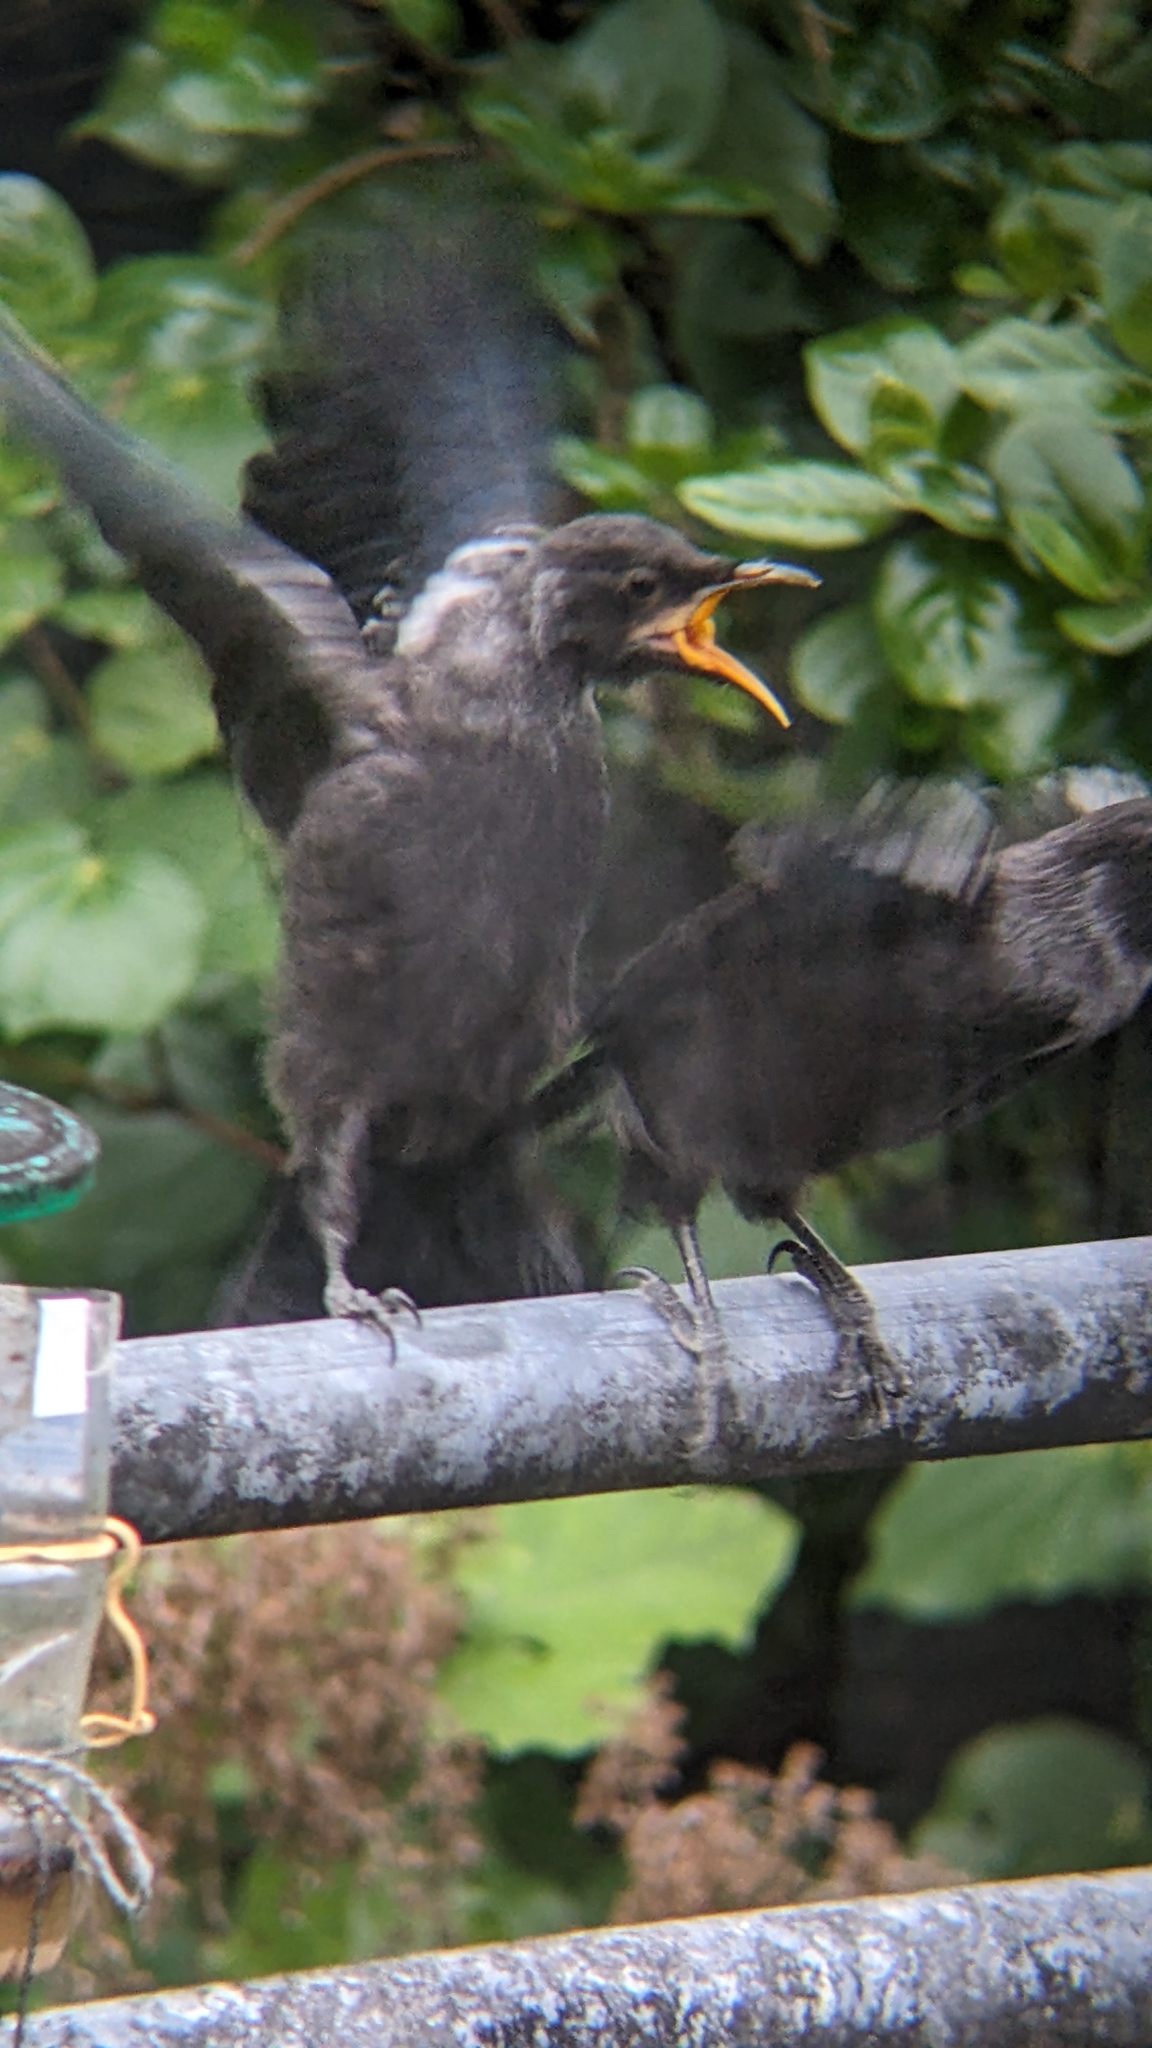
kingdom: Animalia
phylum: Chordata
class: Aves
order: Passeriformes
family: Meliphagidae
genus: Prosthemadera
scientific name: Prosthemadera novaeseelandiae
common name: Tui
